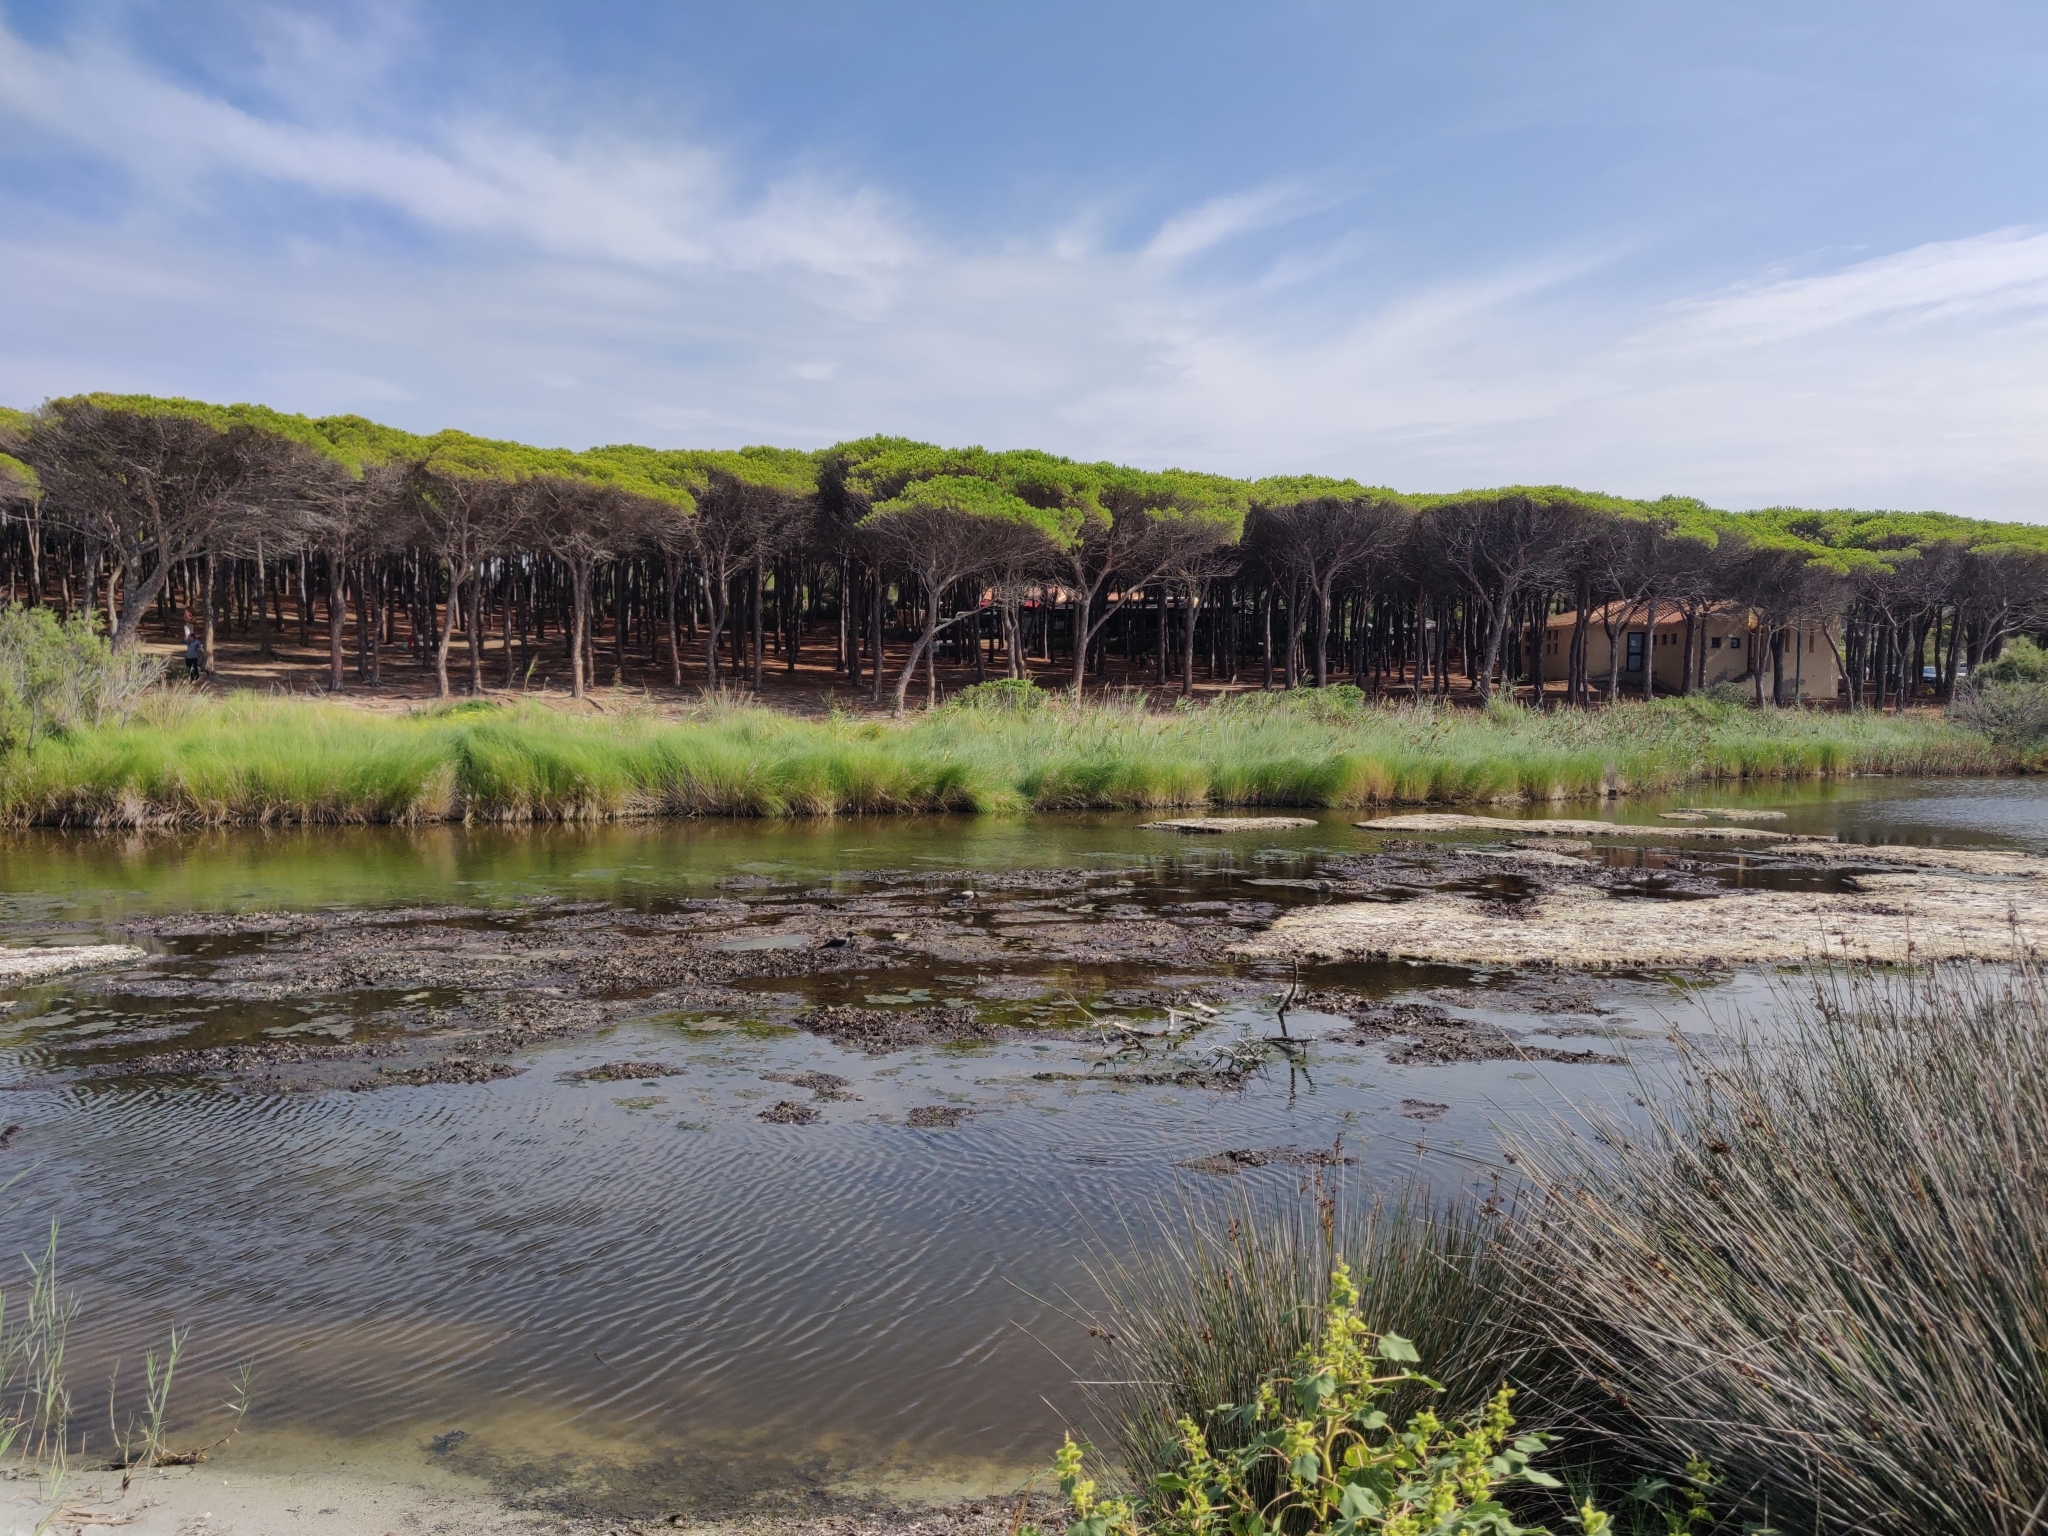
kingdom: Animalia
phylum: Chordata
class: Aves
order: Passeriformes
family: Corvidae
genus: Corvus
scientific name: Corvus cornix
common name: Hooded crow
